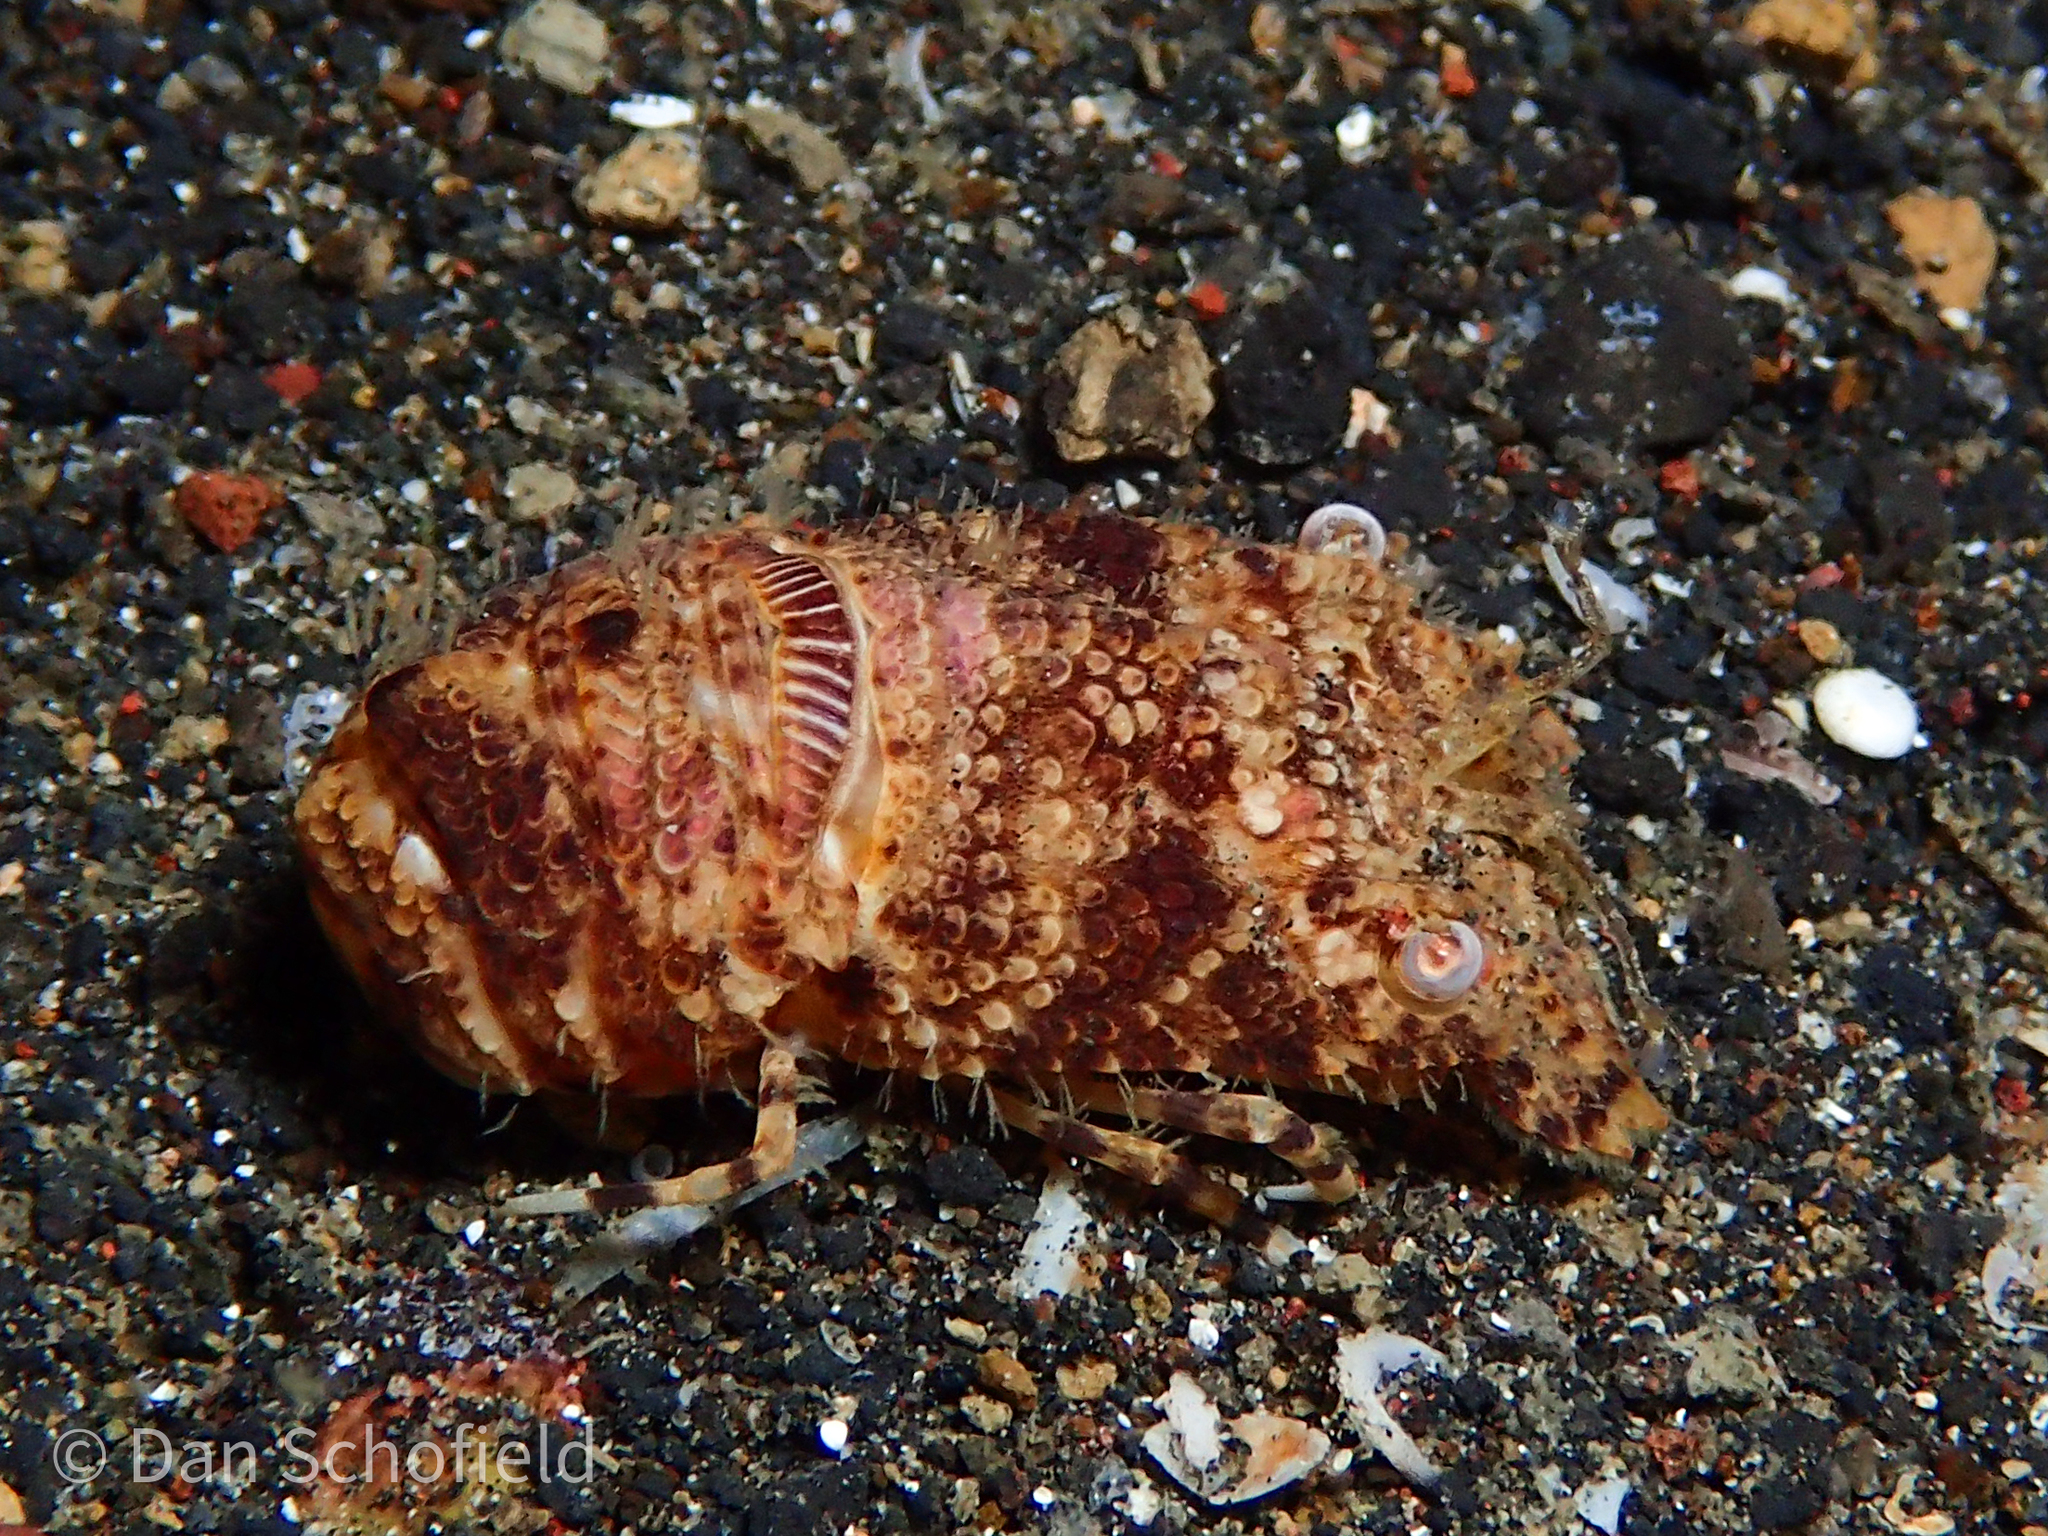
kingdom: Animalia
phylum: Arthropoda
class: Malacostraca
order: Decapoda
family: Scyllaridae
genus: Remiarctus
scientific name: Remiarctus bertholdii
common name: Two-spot locust lobster
